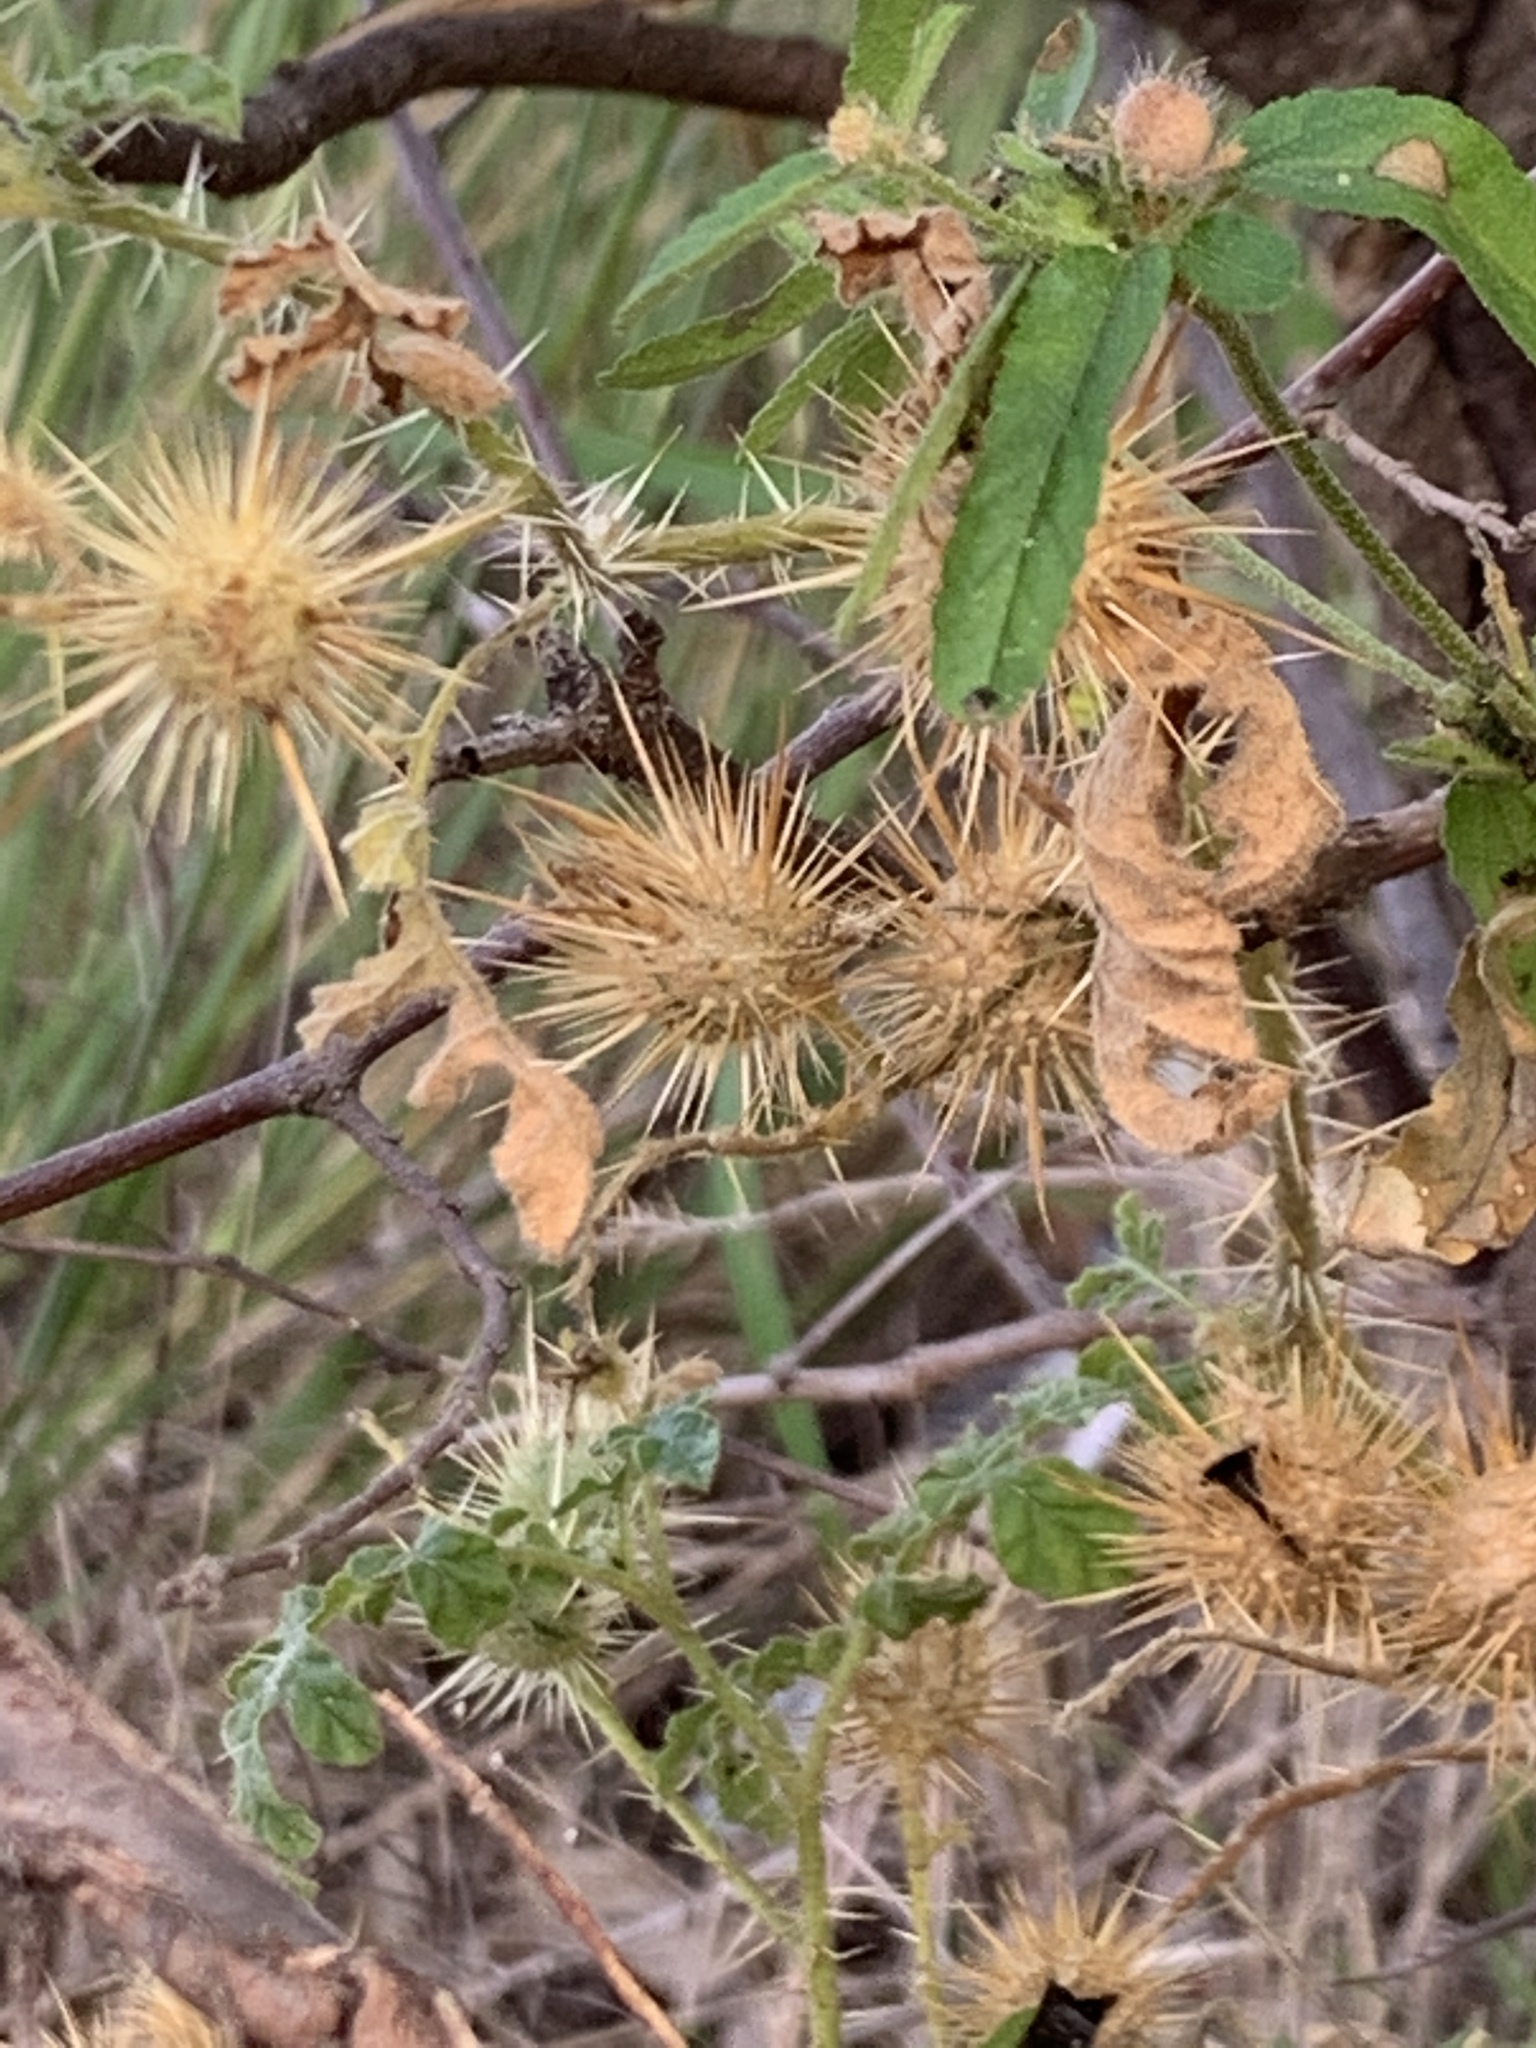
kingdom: Plantae
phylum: Tracheophyta
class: Magnoliopsida
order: Solanales
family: Solanaceae
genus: Solanum
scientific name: Solanum angustifolium
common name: Buffalobur nightshade
